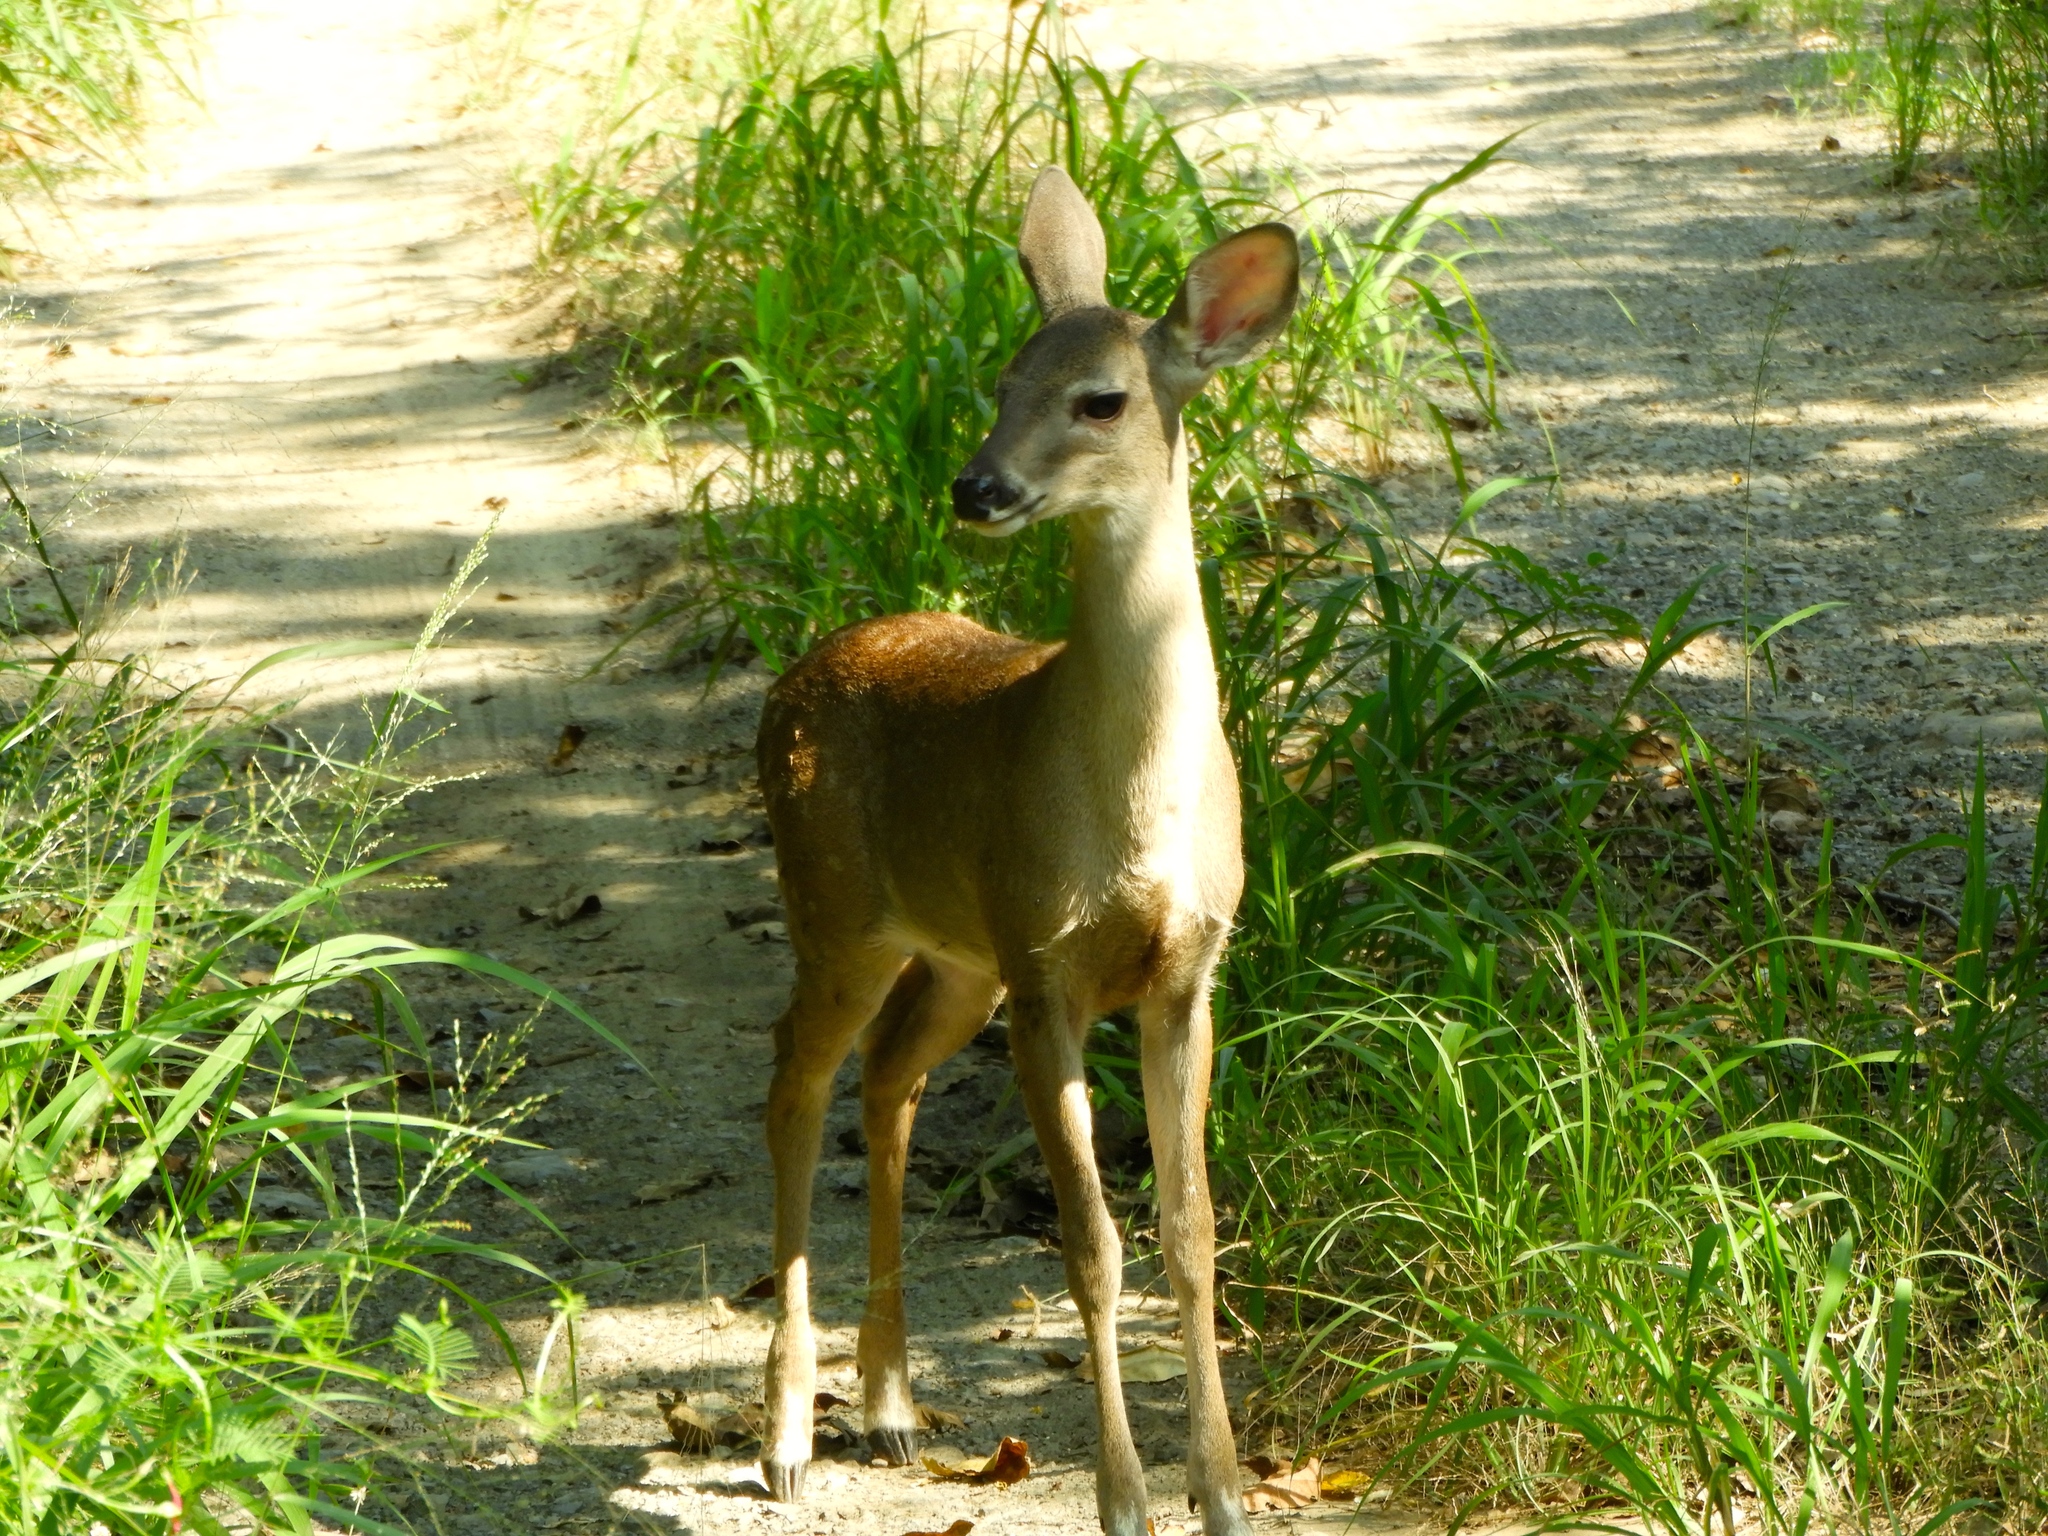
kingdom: Animalia
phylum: Chordata
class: Mammalia
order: Artiodactyla
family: Cervidae
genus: Odocoileus
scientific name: Odocoileus virginianus
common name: White-tailed deer
